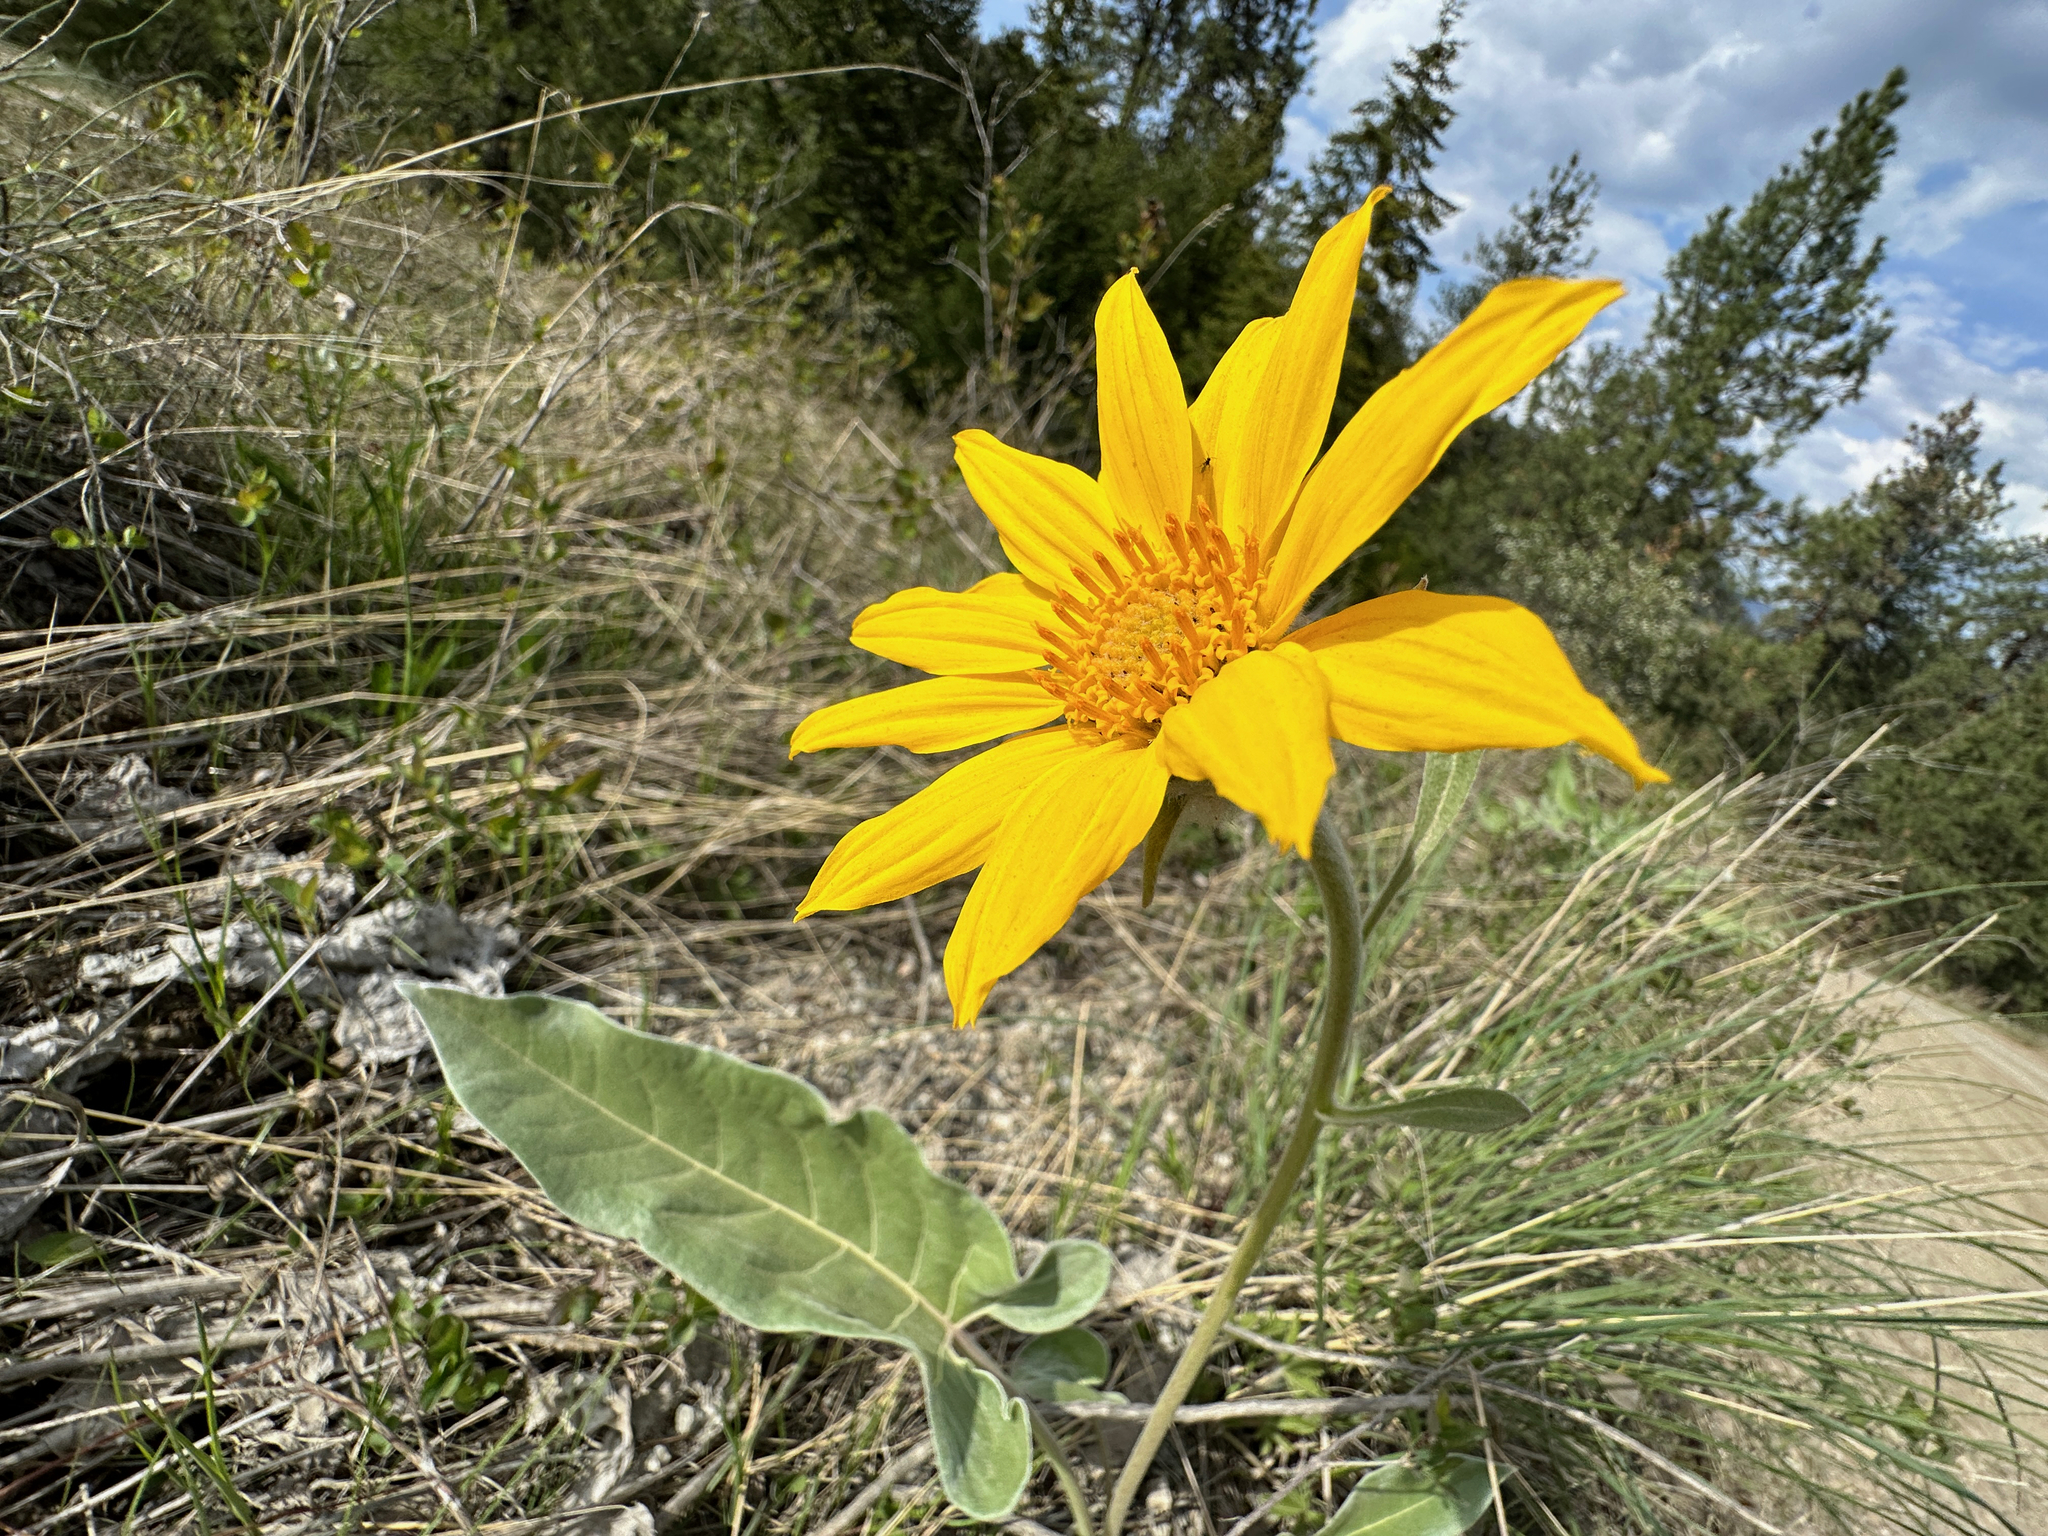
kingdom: Plantae
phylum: Tracheophyta
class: Magnoliopsida
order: Asterales
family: Asteraceae
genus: Wyethia
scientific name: Wyethia sagittata
